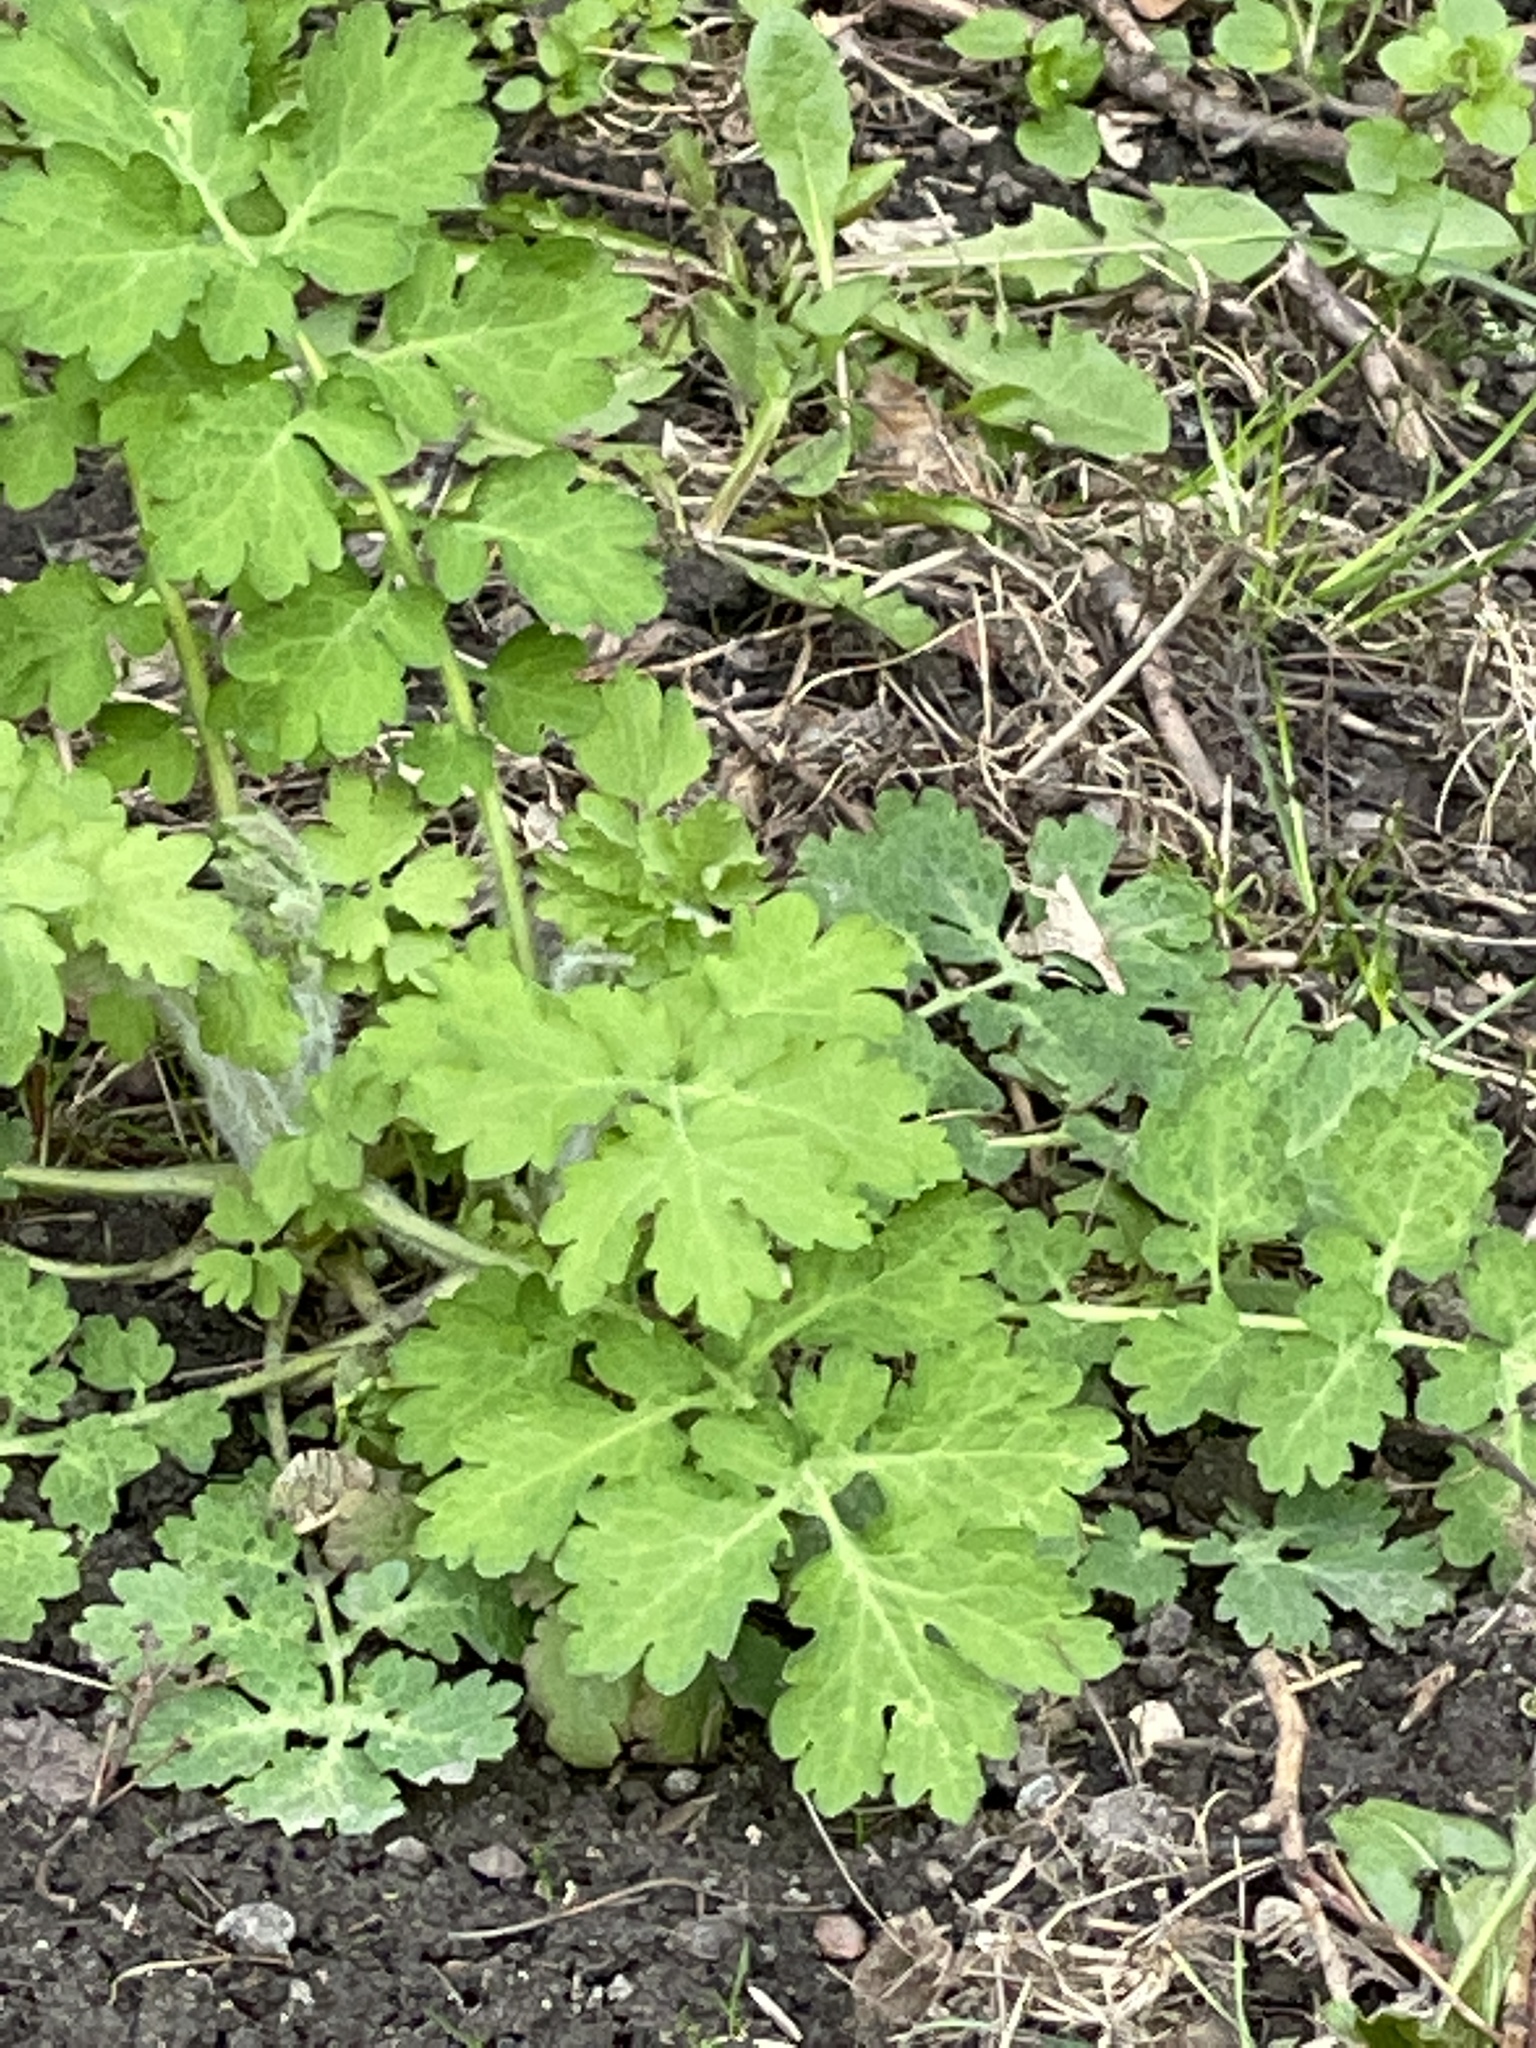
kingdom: Plantae
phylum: Tracheophyta
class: Magnoliopsida
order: Ranunculales
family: Papaveraceae
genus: Chelidonium
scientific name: Chelidonium majus
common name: Greater celandine
